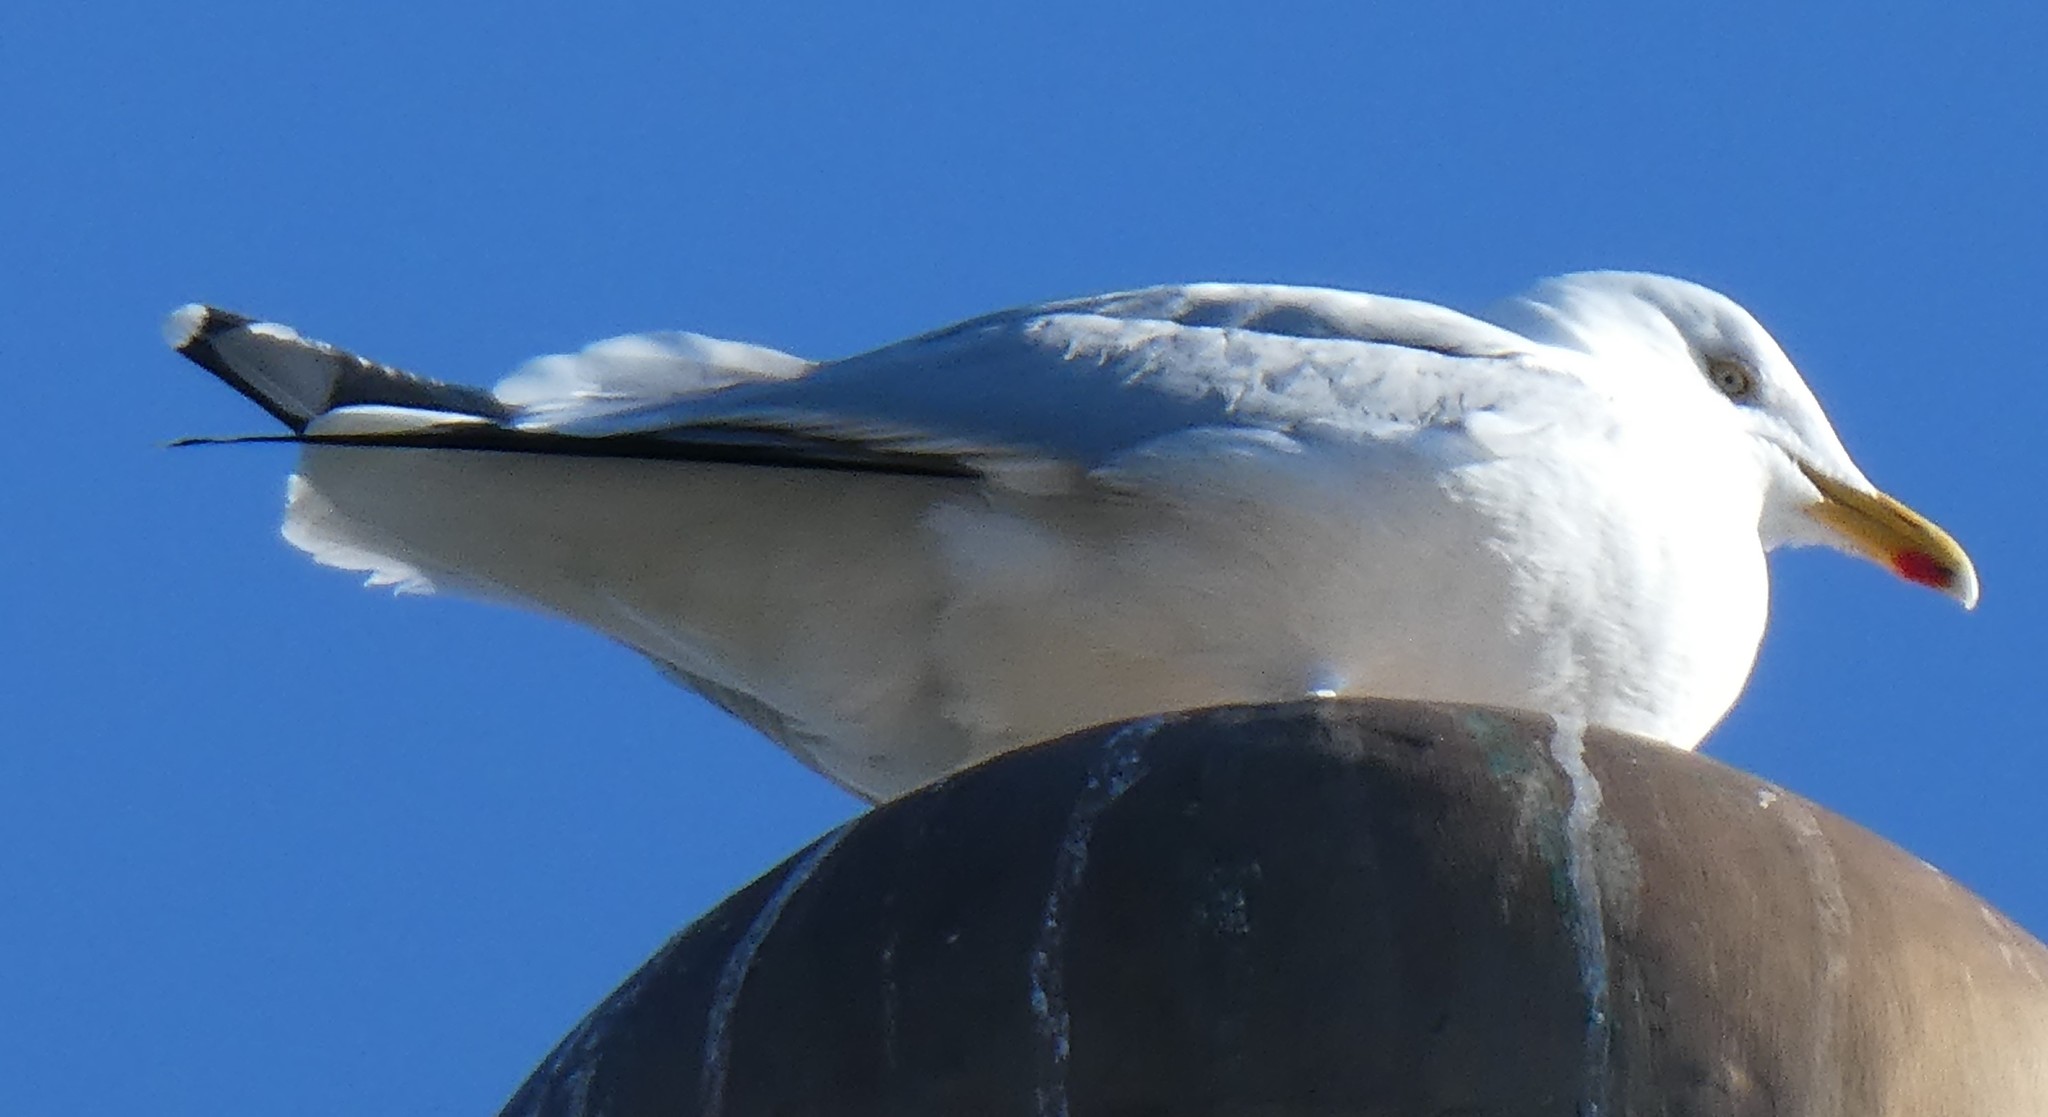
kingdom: Animalia
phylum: Chordata
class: Aves
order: Charadriiformes
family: Laridae
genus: Larus
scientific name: Larus argentatus
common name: Herring gull
